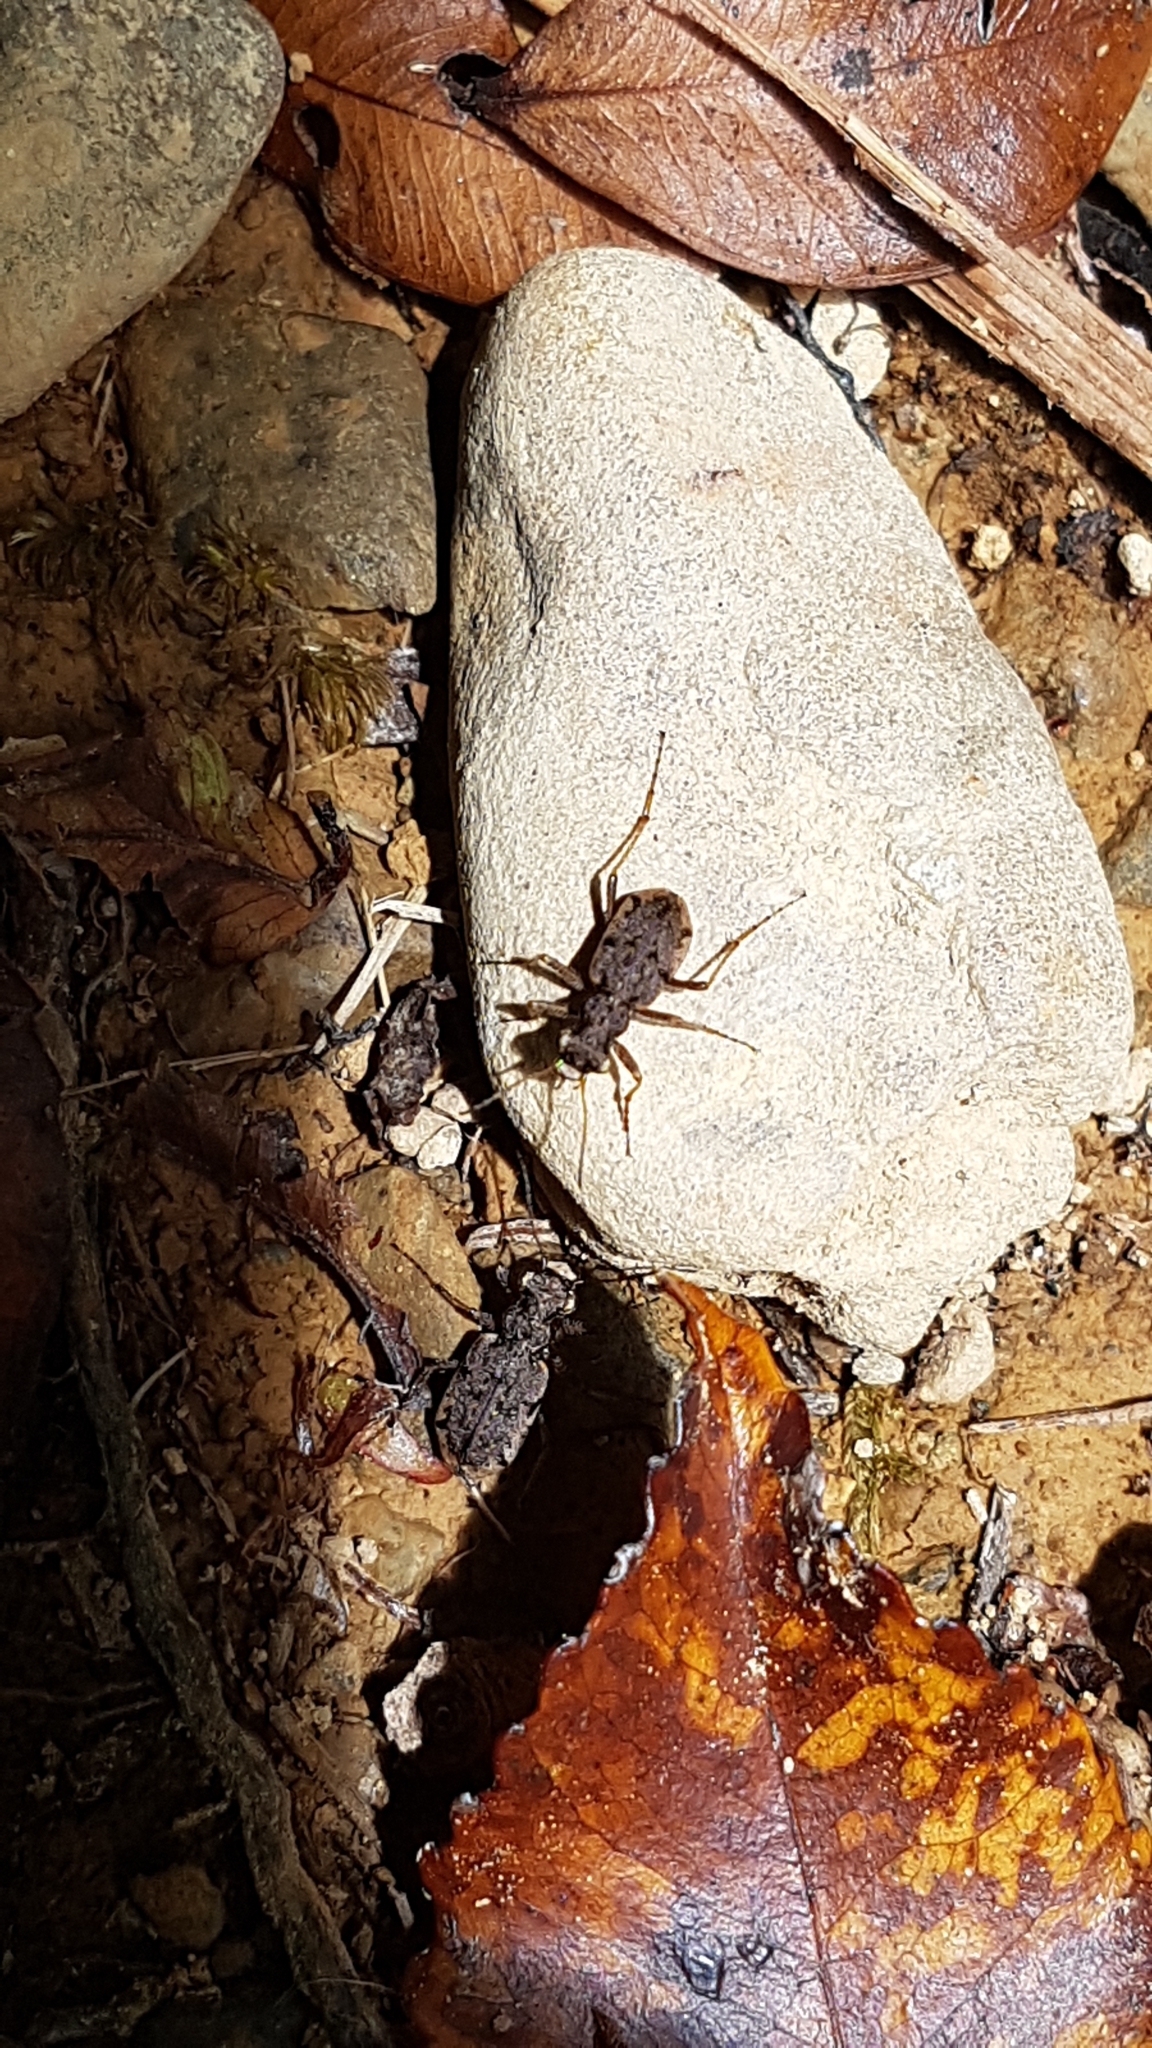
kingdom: Animalia
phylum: Arthropoda
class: Insecta
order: Coleoptera
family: Carabidae
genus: Neocicindela
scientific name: Neocicindela parryi
